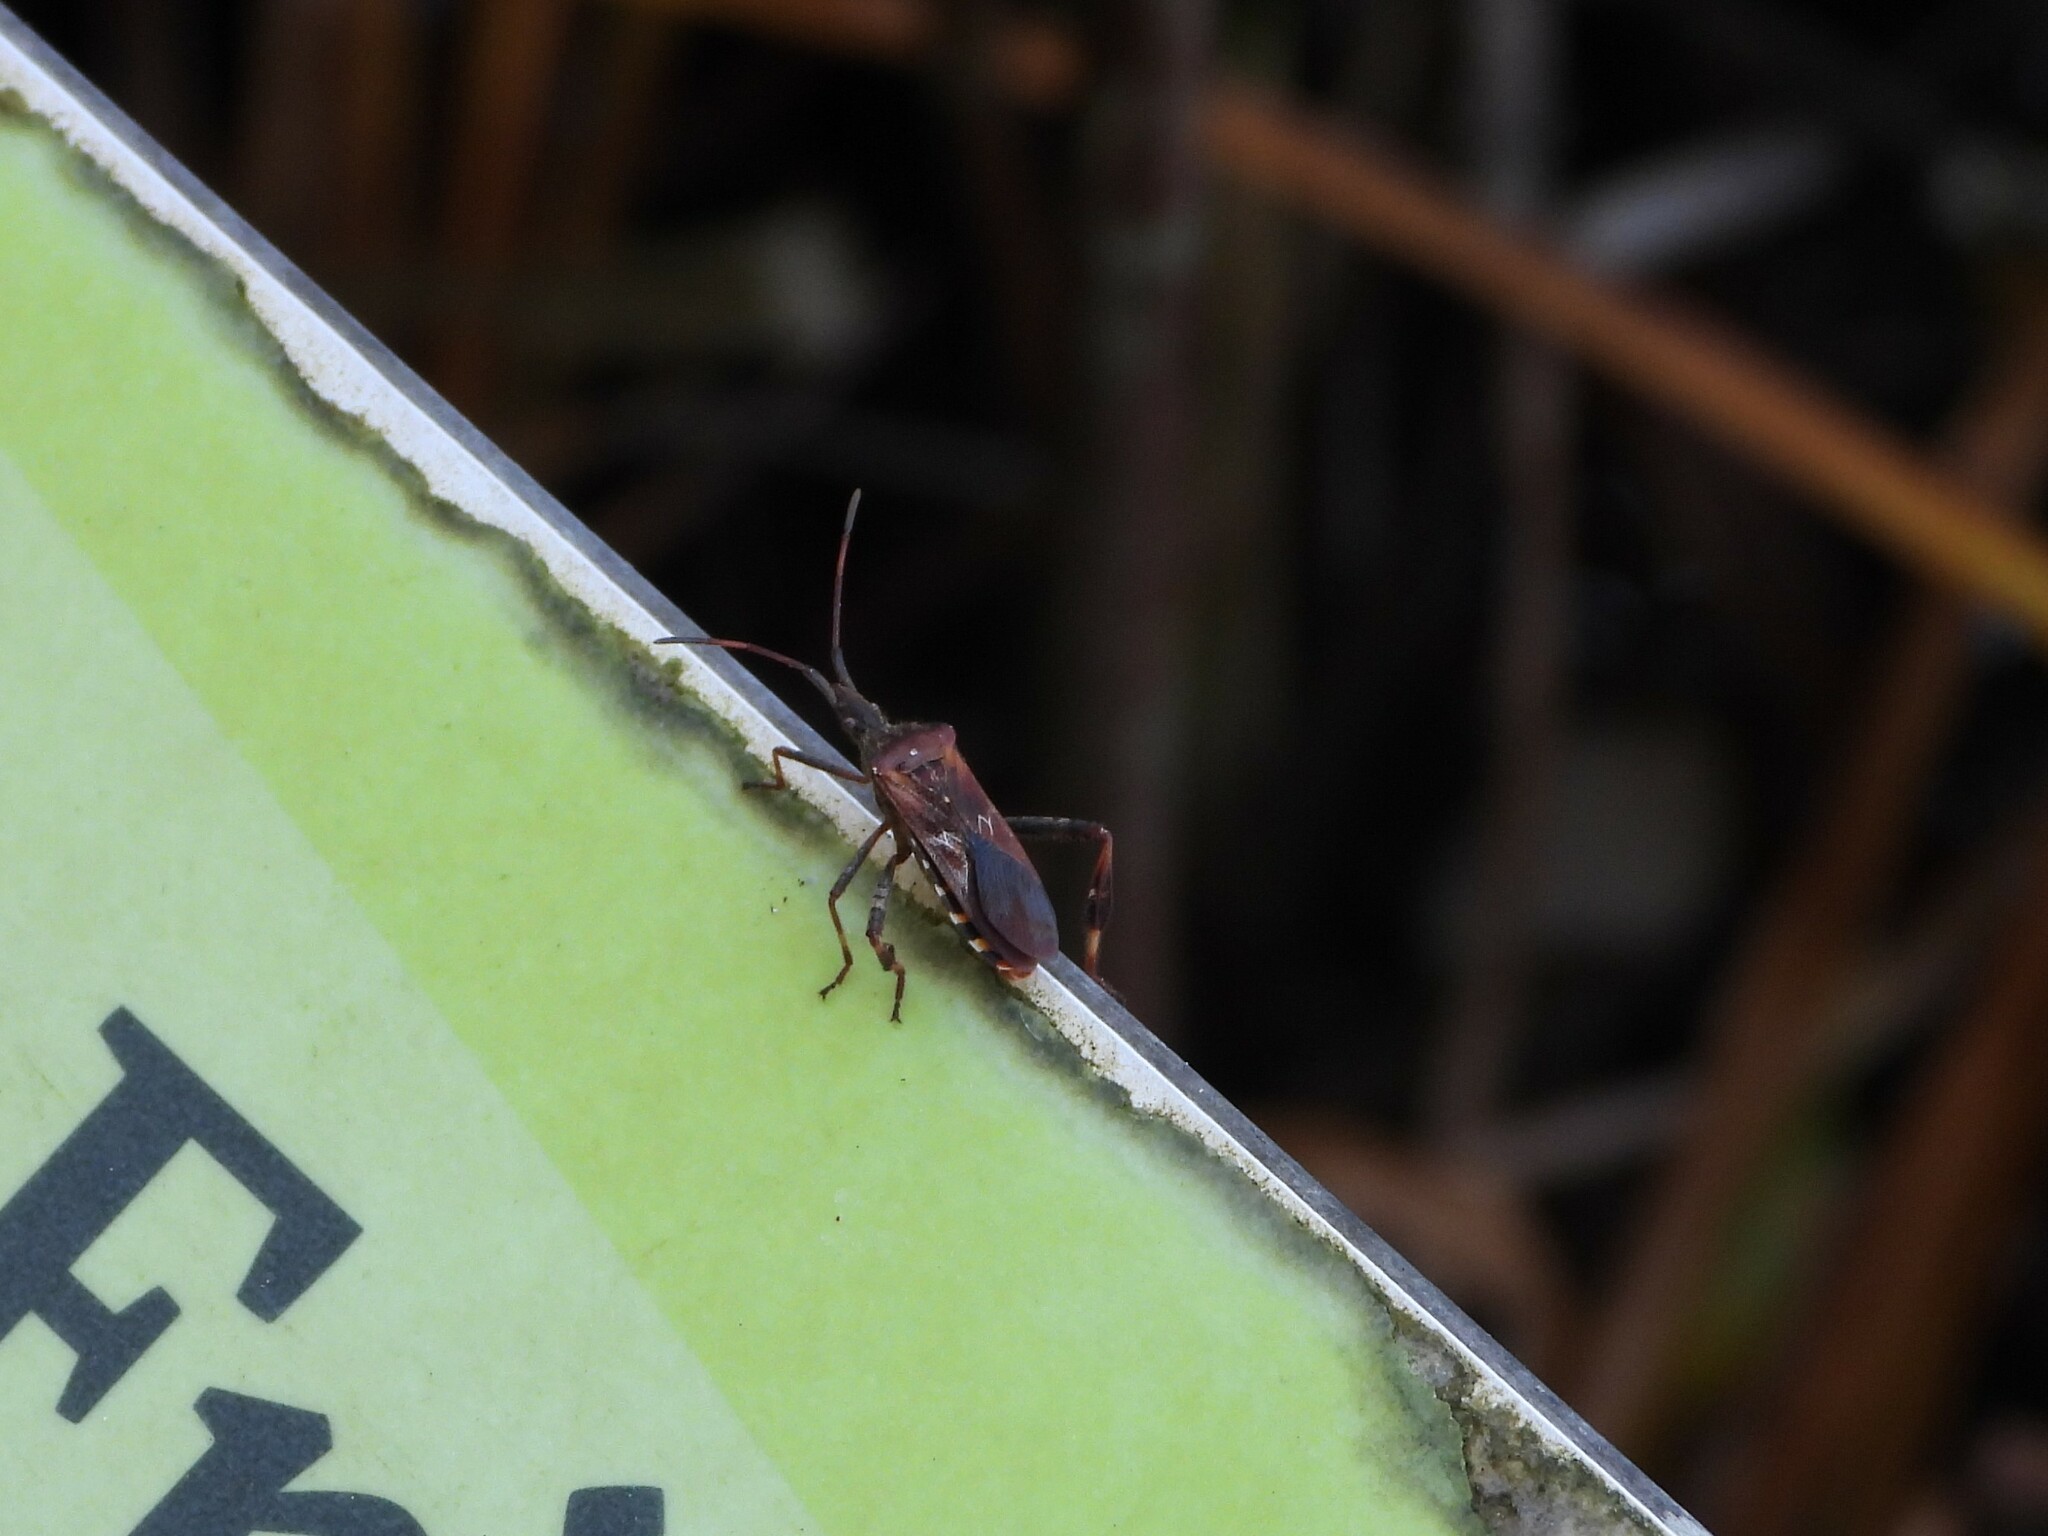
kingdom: Animalia
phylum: Arthropoda
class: Insecta
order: Hemiptera
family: Coreidae
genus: Leptoglossus
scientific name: Leptoglossus occidentalis
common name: Western conifer-seed bug
